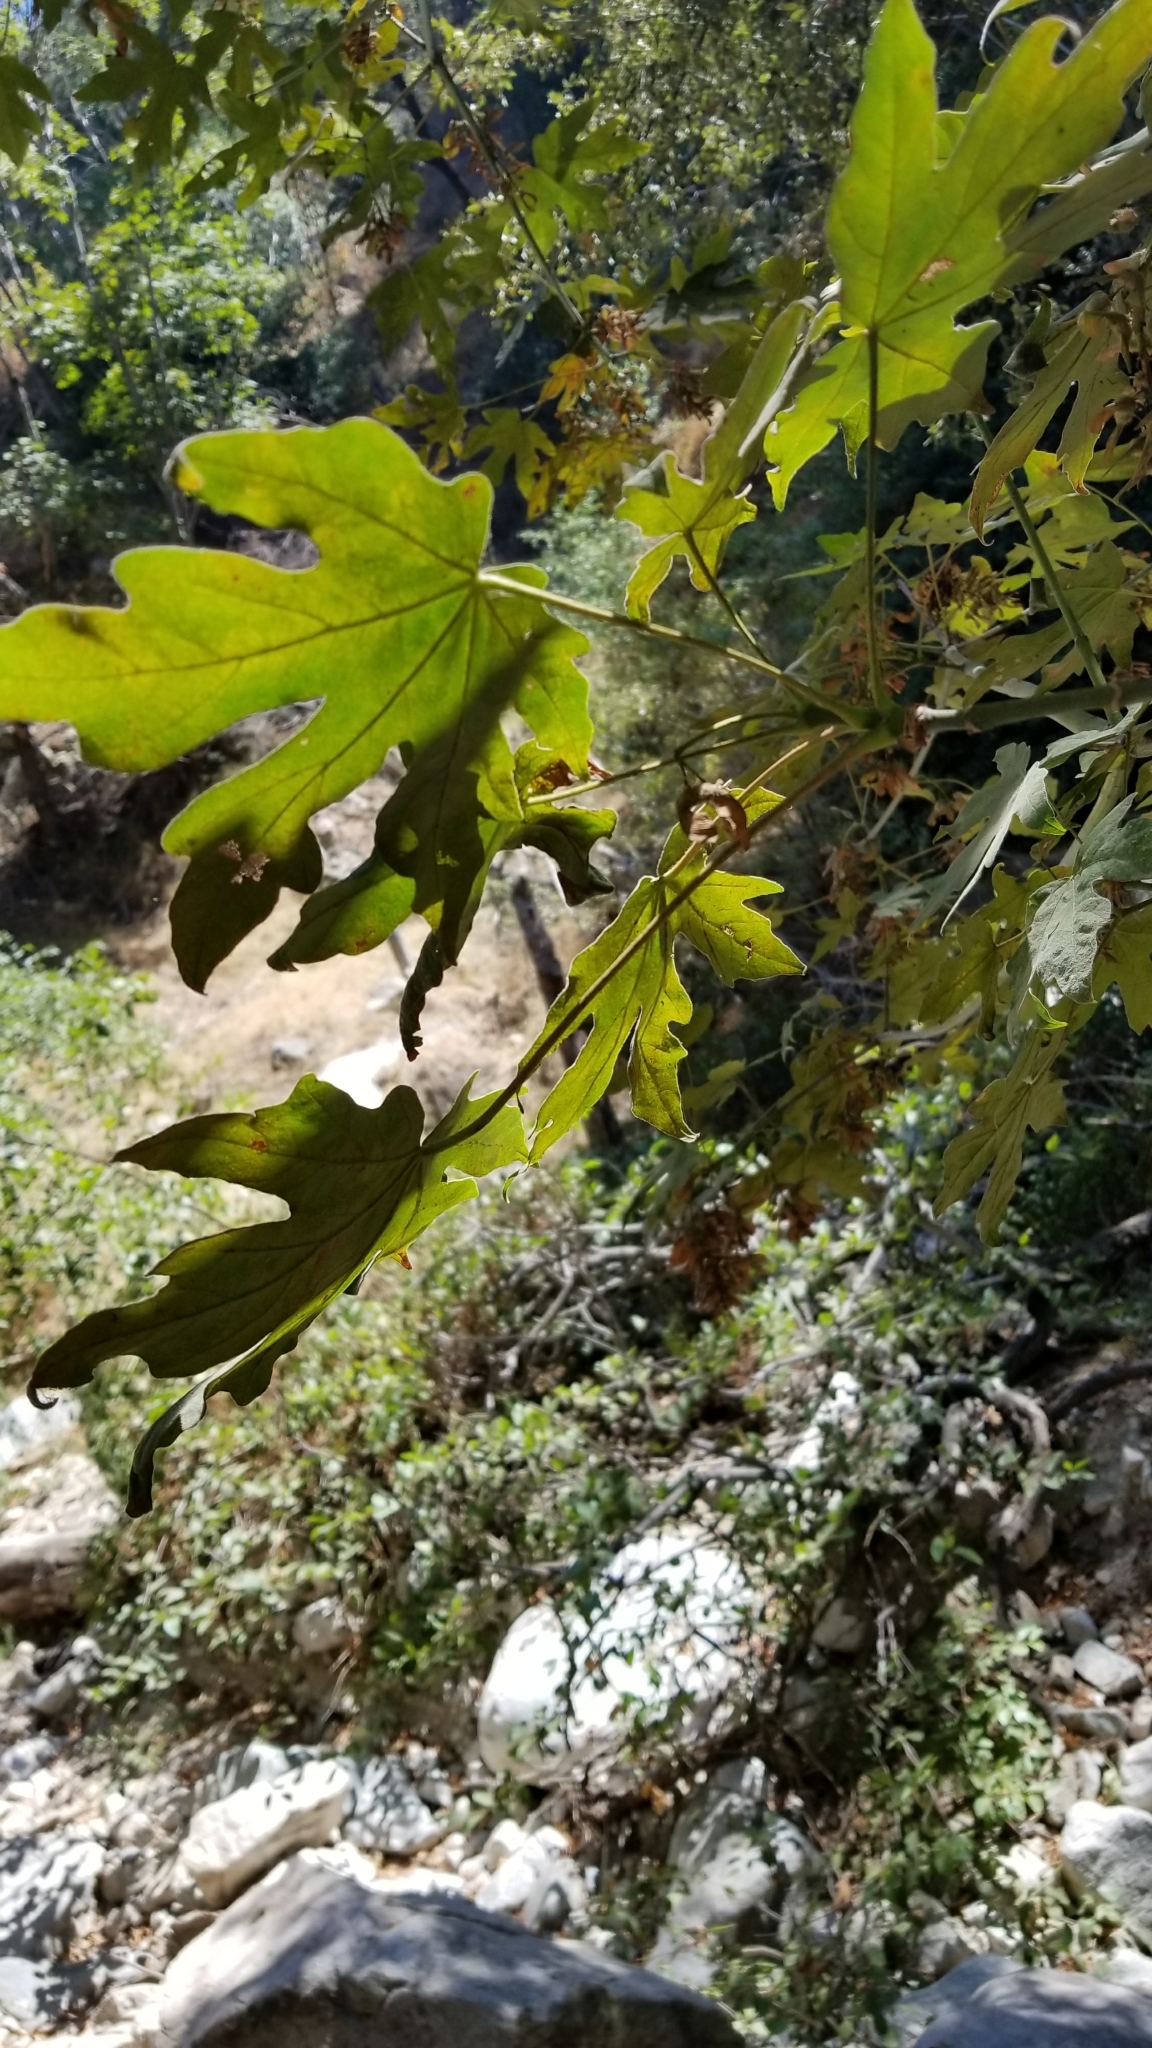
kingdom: Plantae
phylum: Tracheophyta
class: Magnoliopsida
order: Sapindales
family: Sapindaceae
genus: Acer
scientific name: Acer macrophyllum
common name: Oregon maple
